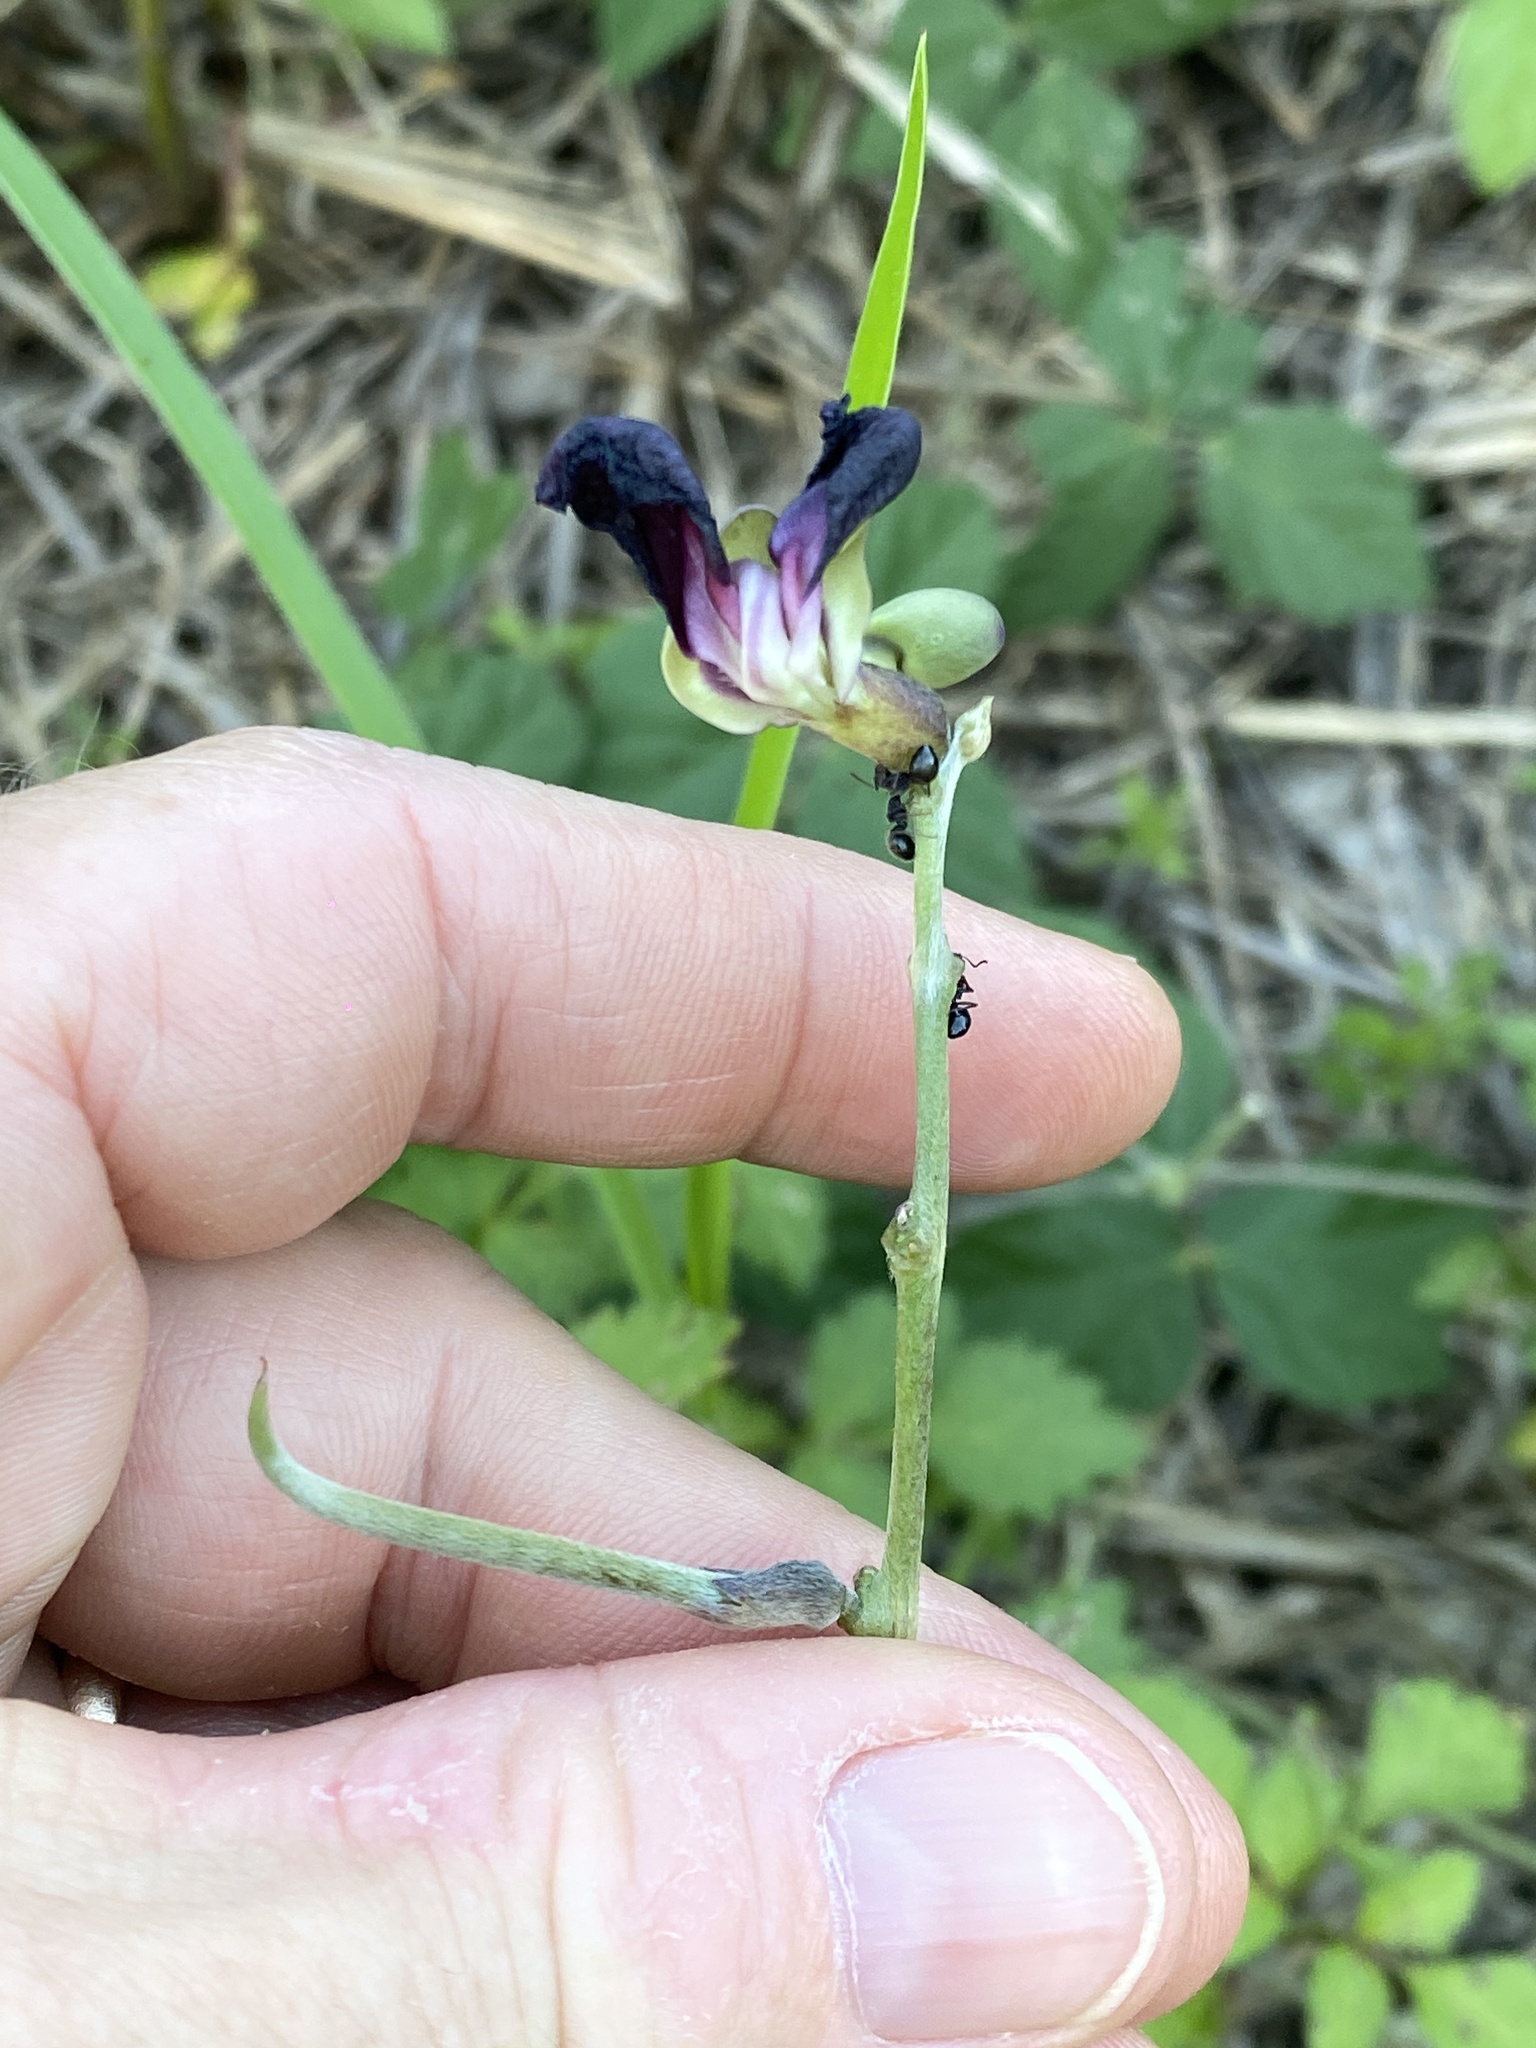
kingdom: Plantae
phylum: Tracheophyta
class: Magnoliopsida
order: Fabales
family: Fabaceae
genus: Macroptilium
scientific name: Macroptilium atropurpureum
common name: Purple bushbean
